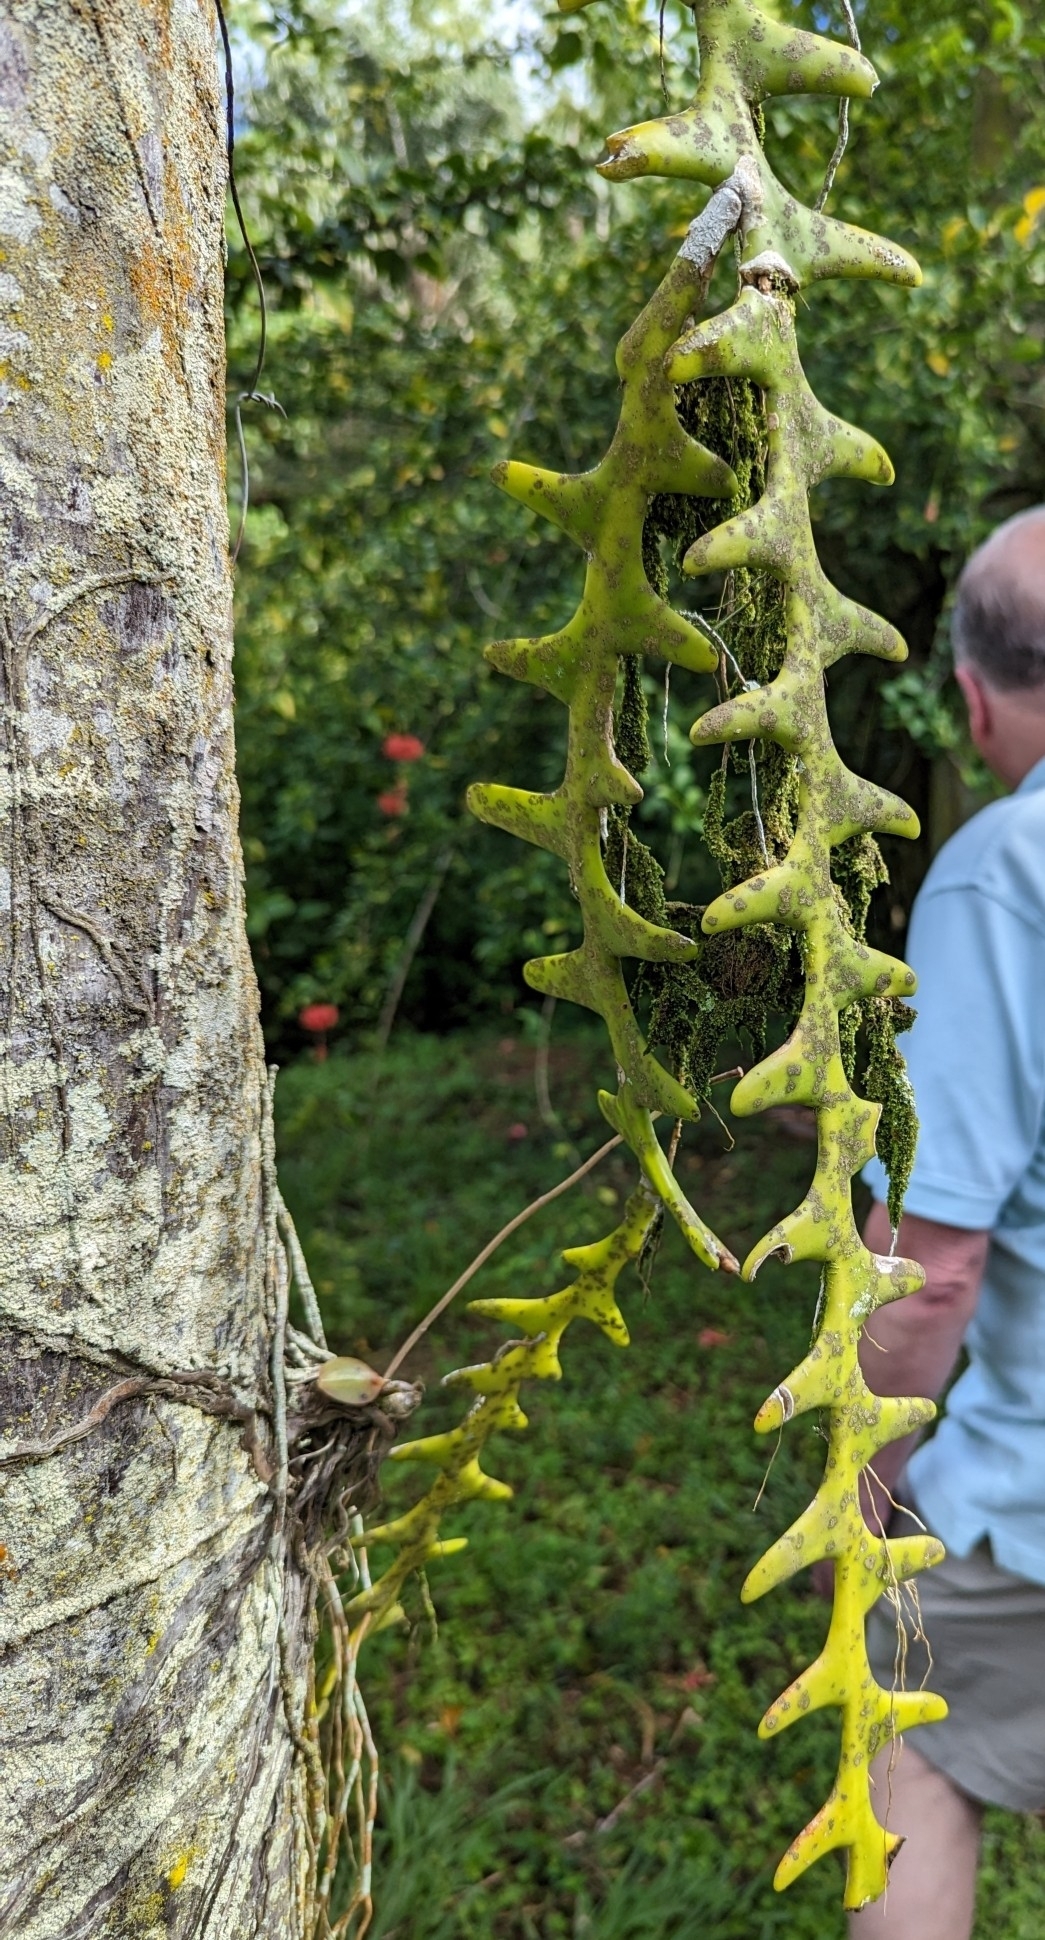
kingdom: Plantae
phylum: Tracheophyta
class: Magnoliopsida
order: Caryophyllales
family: Cactaceae
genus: Selenicereus
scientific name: Selenicereus anthonyanus
